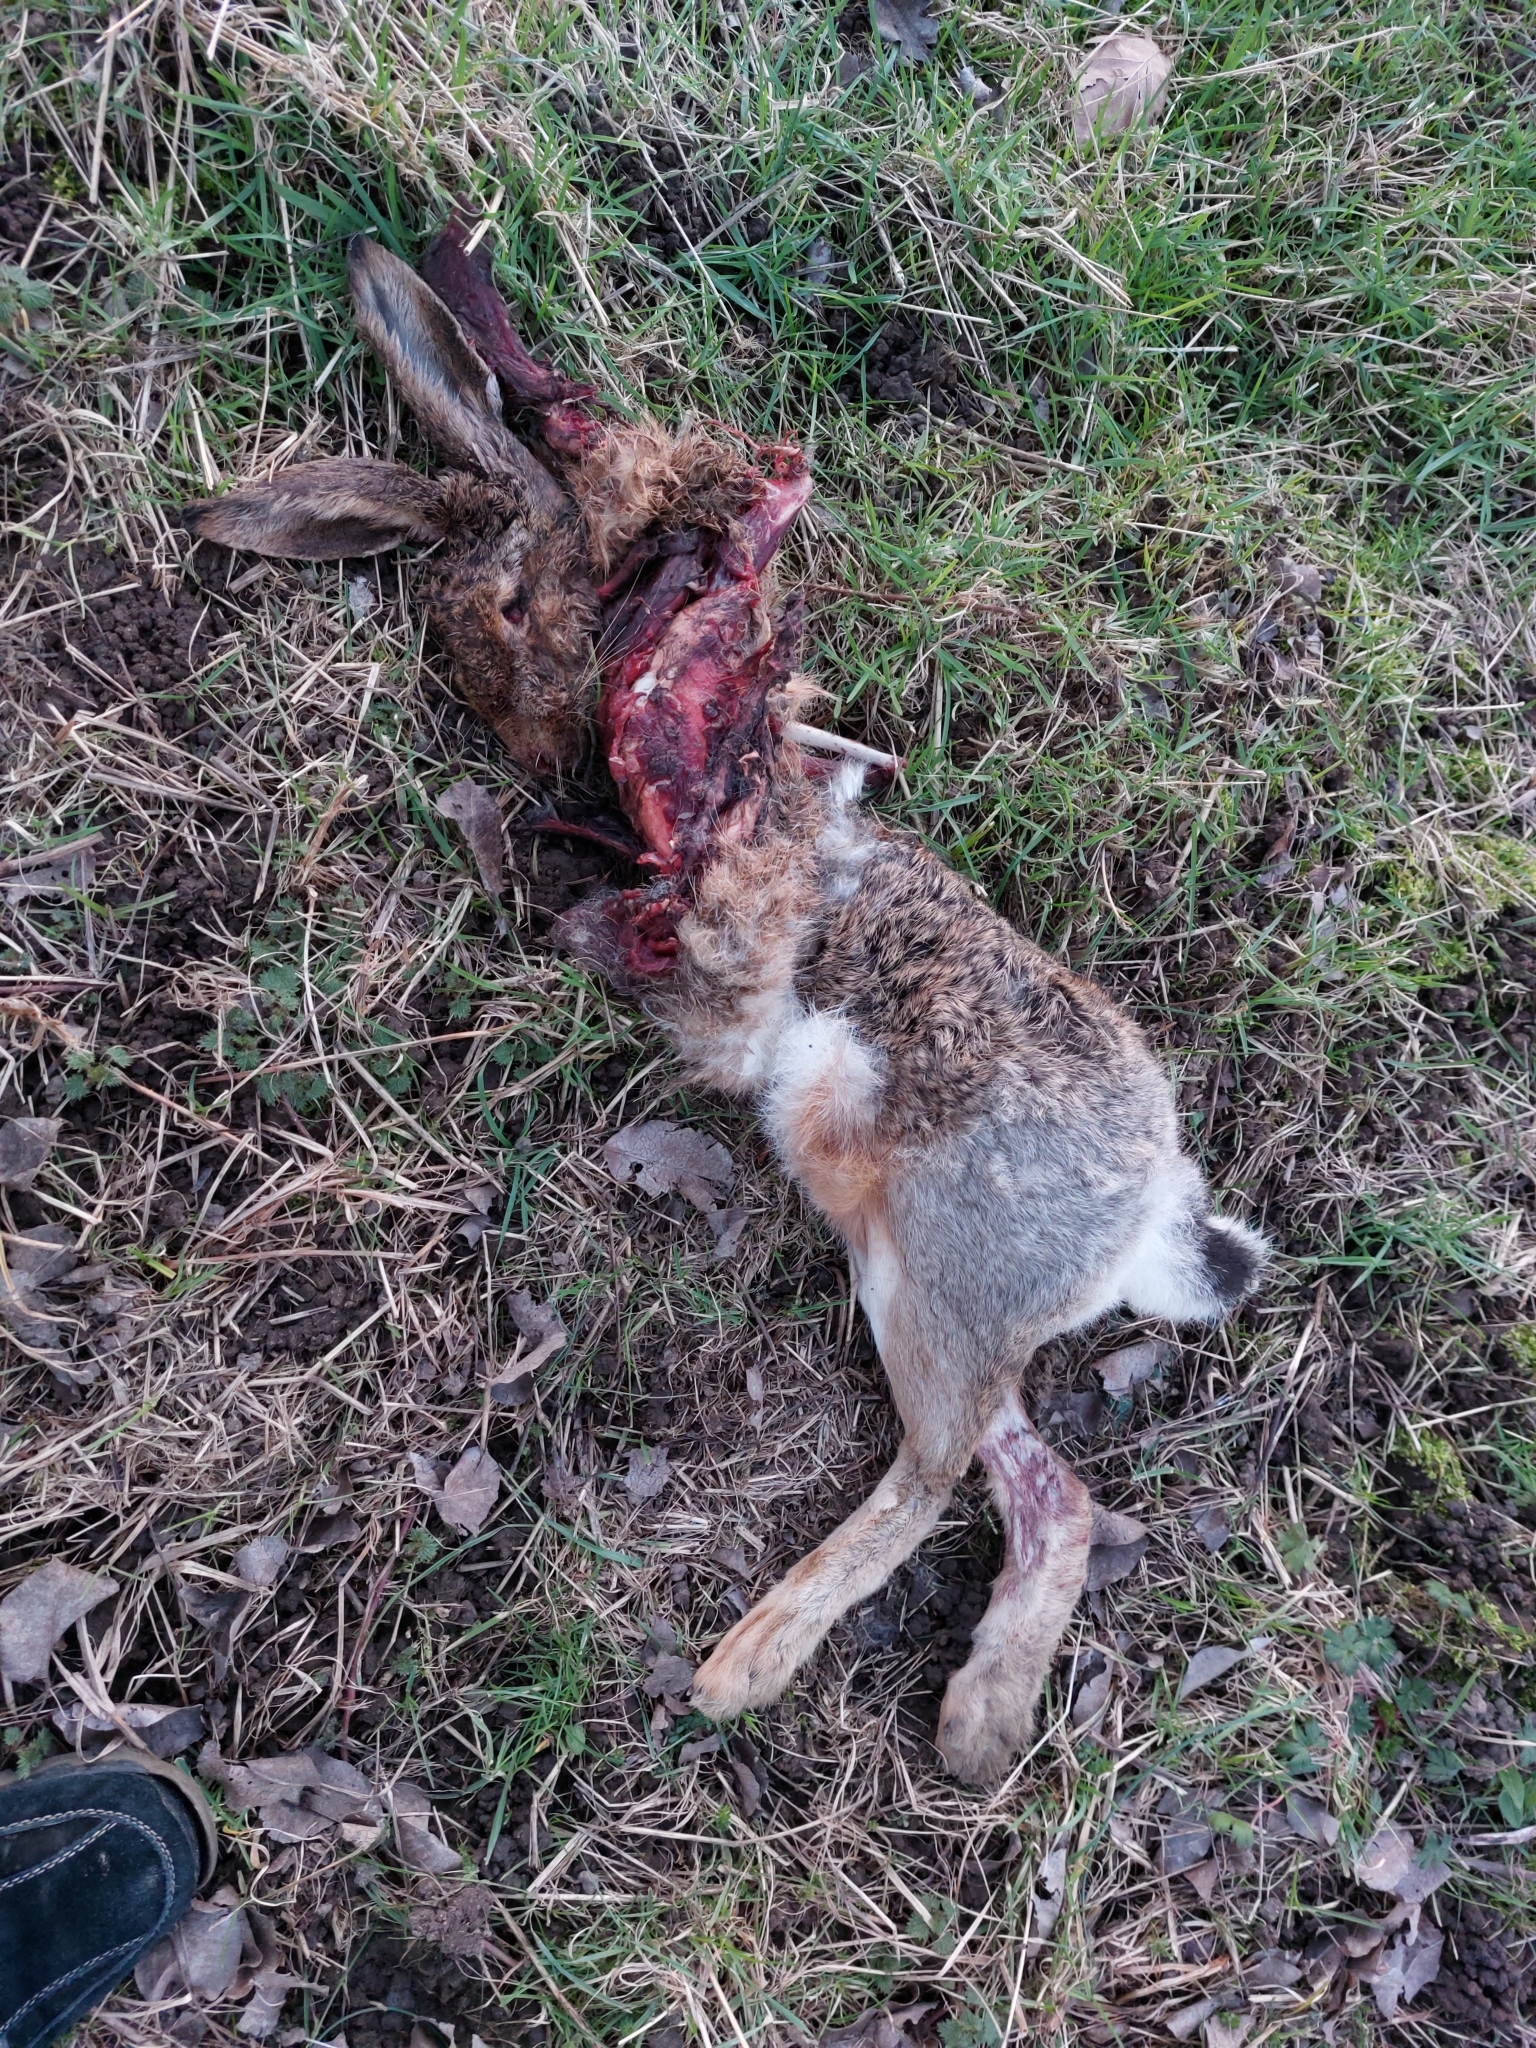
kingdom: Animalia
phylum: Chordata
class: Mammalia
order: Lagomorpha
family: Leporidae
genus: Lepus
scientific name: Lepus europaeus
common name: European hare
